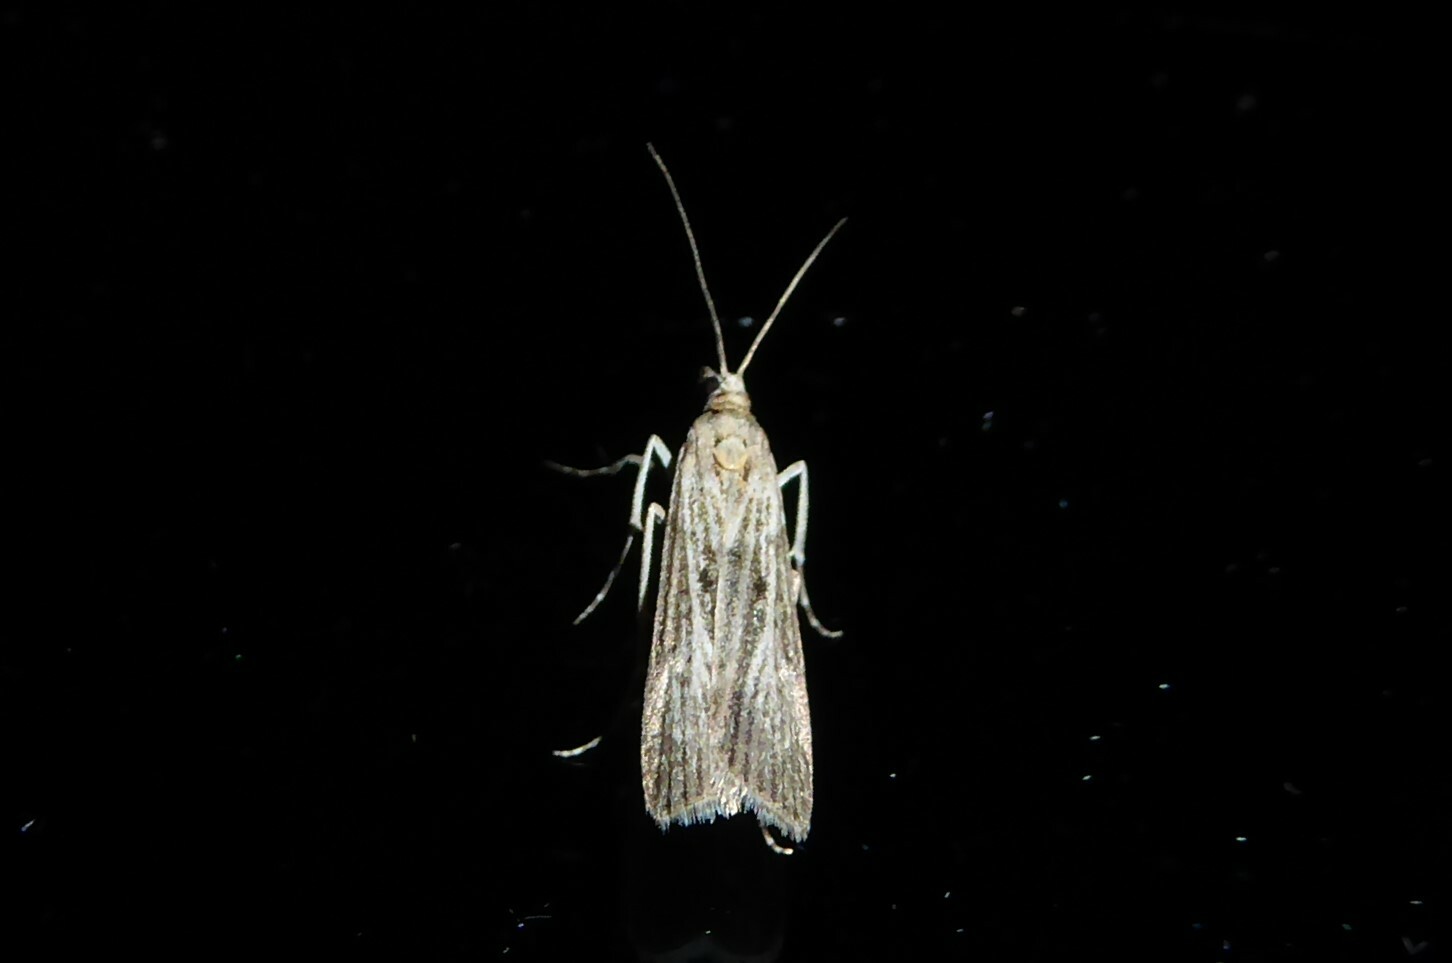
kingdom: Animalia
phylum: Arthropoda
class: Insecta
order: Lepidoptera
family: Crambidae
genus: Eudonia
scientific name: Eudonia atmogramma
